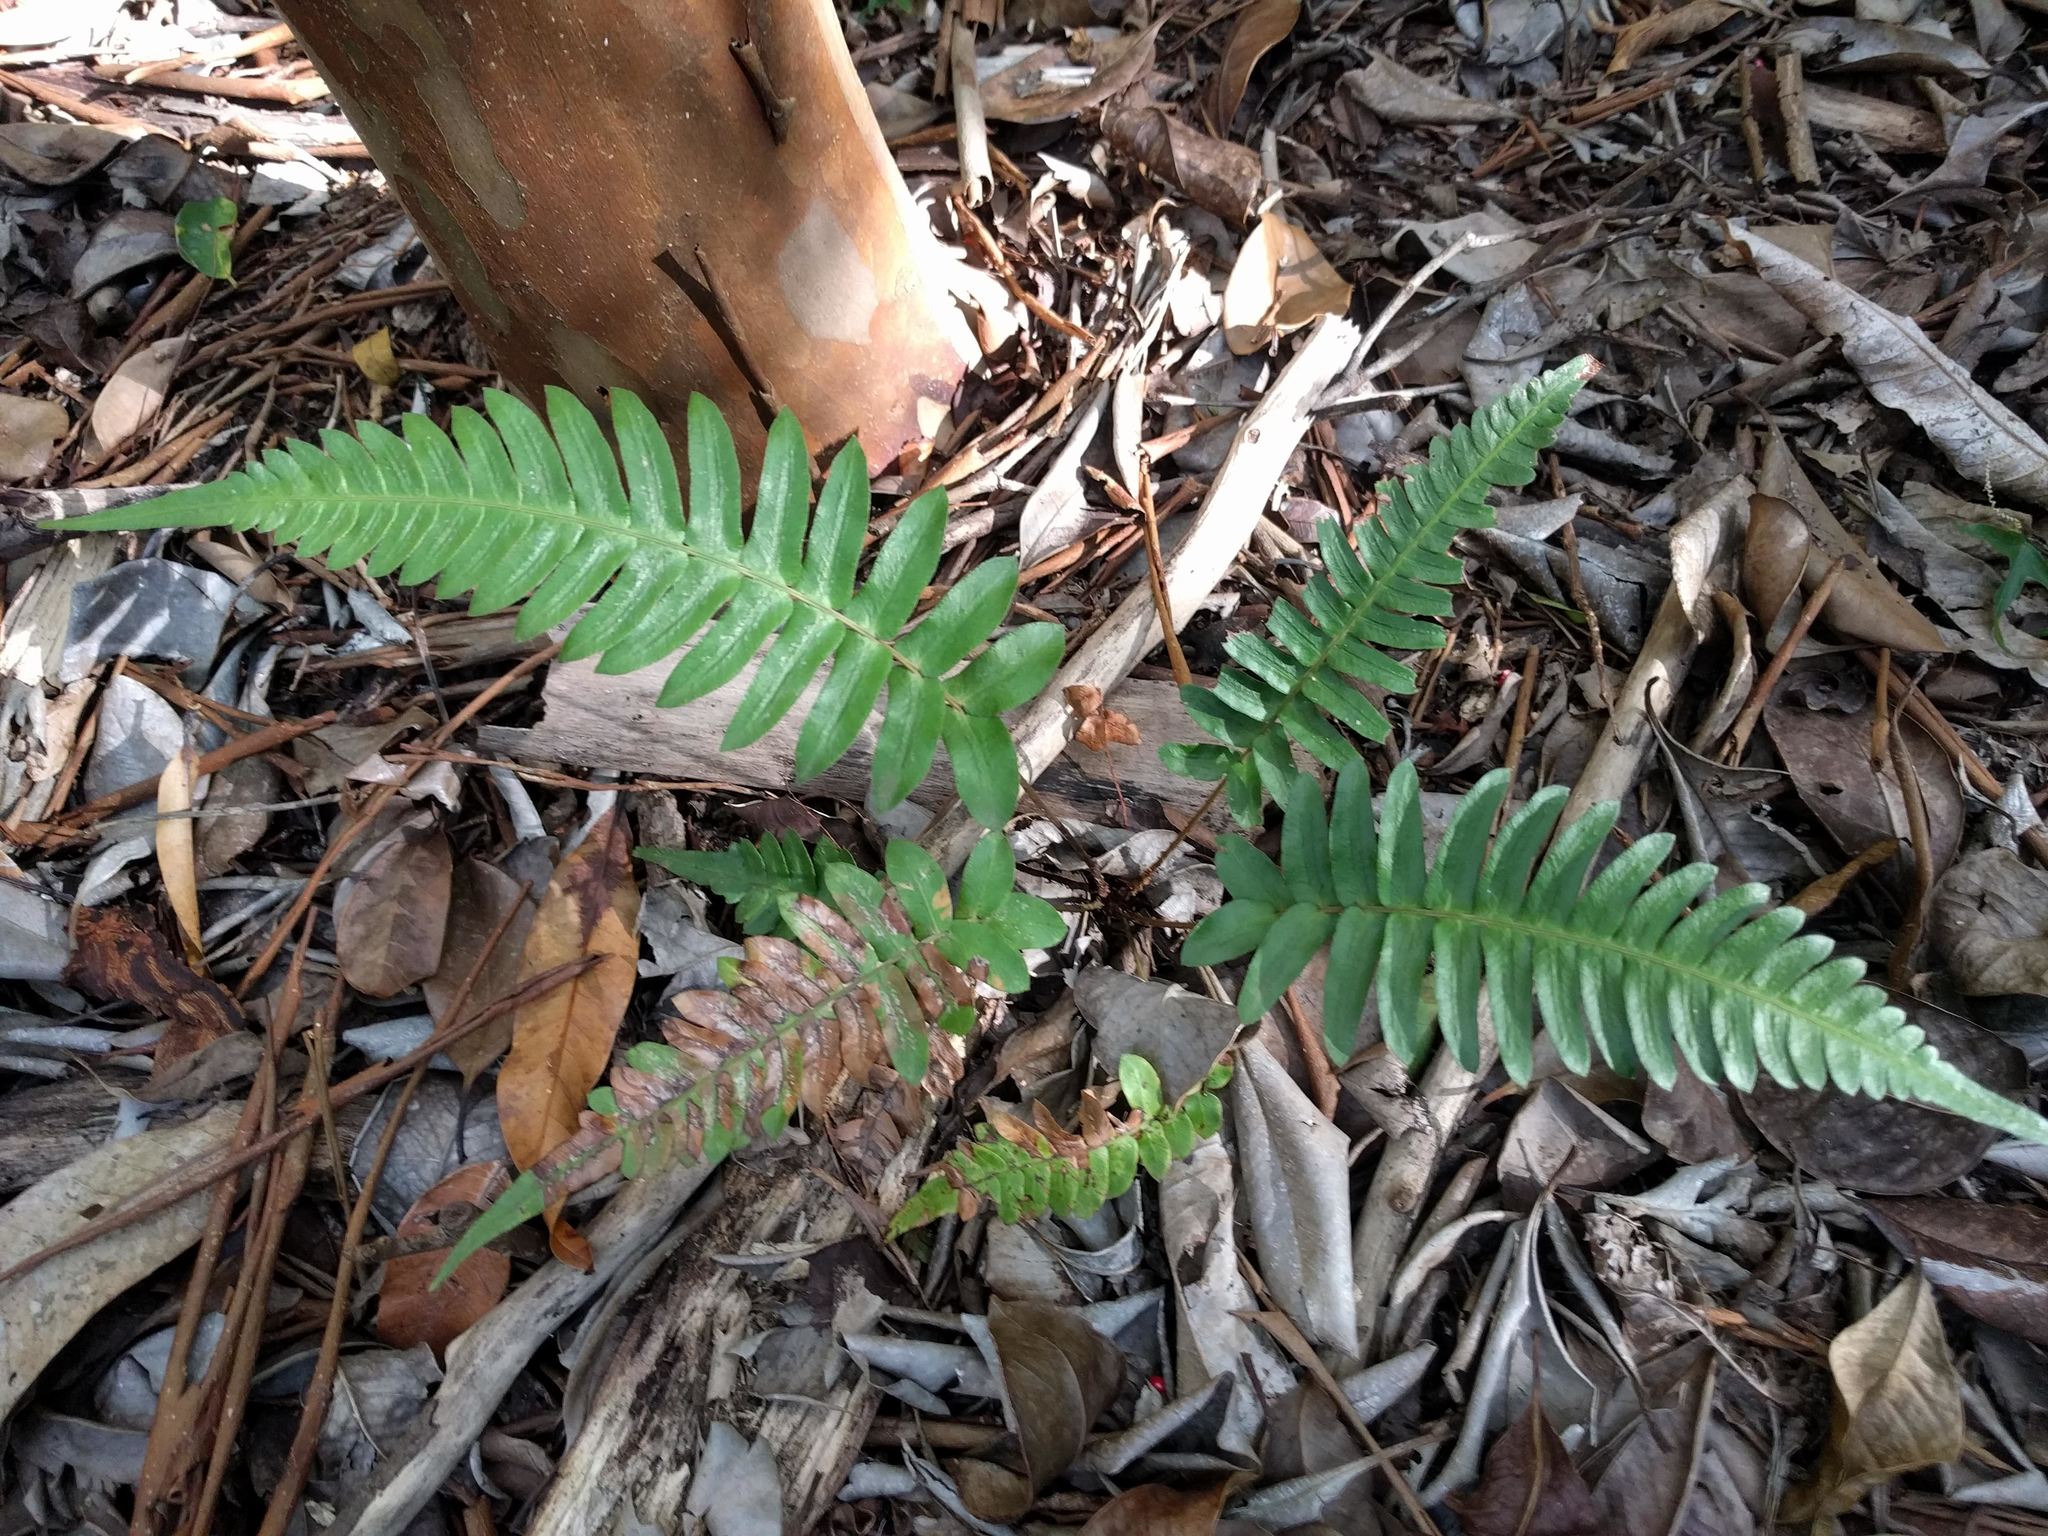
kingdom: Plantae
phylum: Tracheophyta
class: Polypodiopsida
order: Polypodiales
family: Blechnaceae
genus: Blechnum
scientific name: Blechnum appendiculatum
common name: Palm fern
